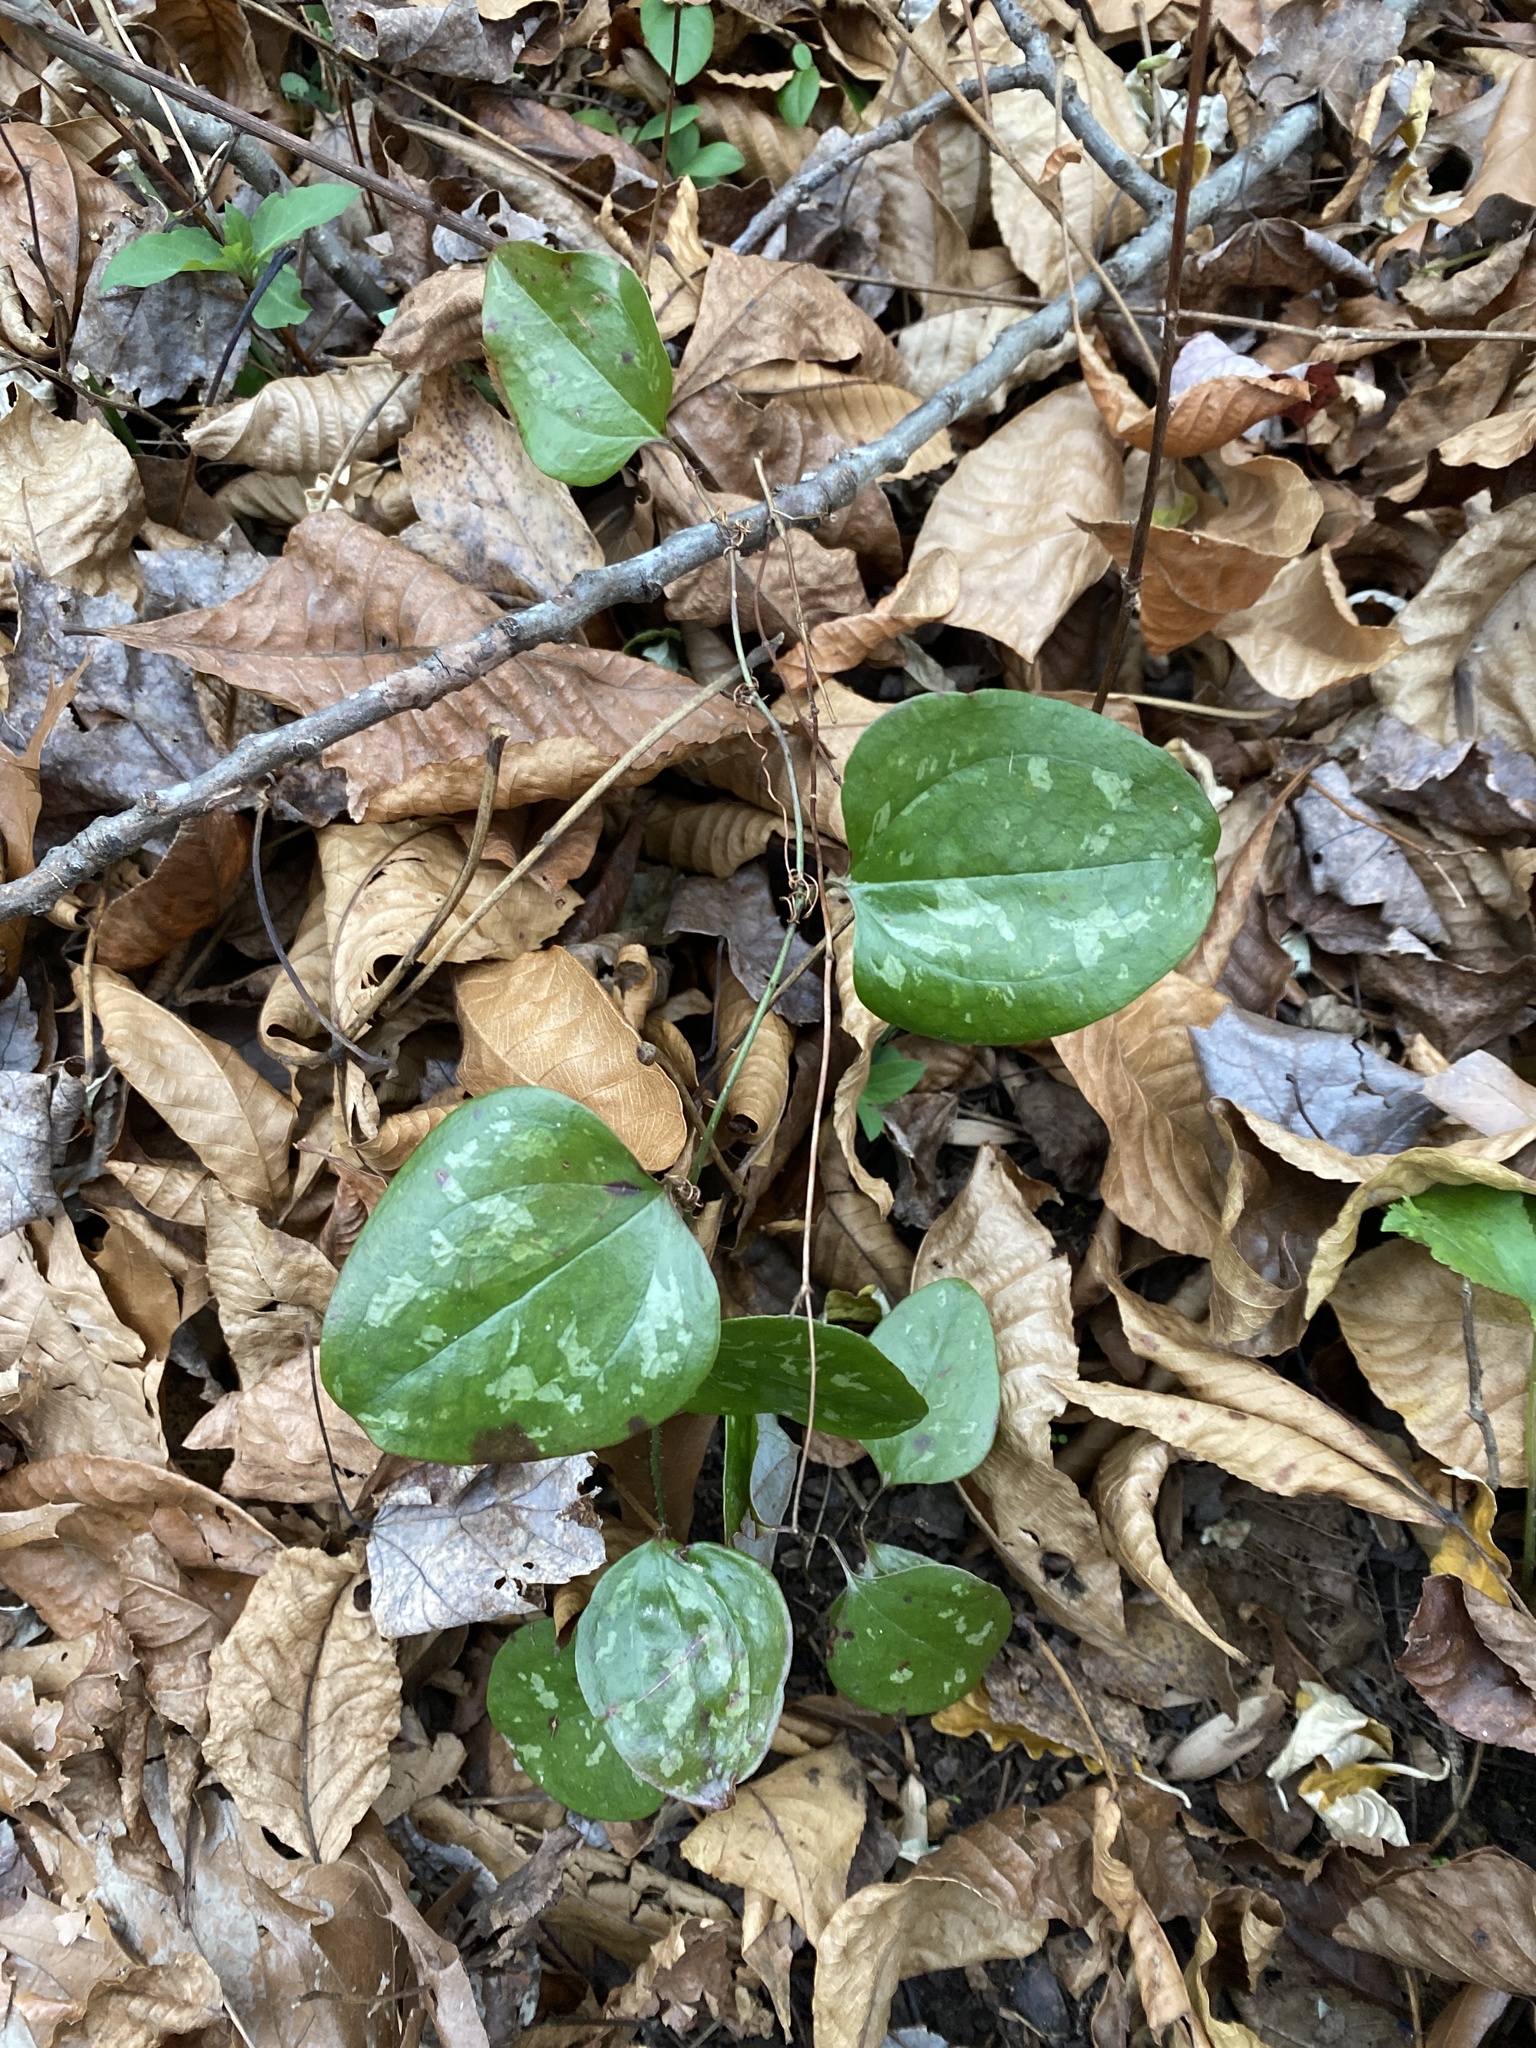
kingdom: Plantae
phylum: Tracheophyta
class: Liliopsida
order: Liliales
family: Smilacaceae
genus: Smilax
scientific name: Smilax glauca
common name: Cat greenbrier
